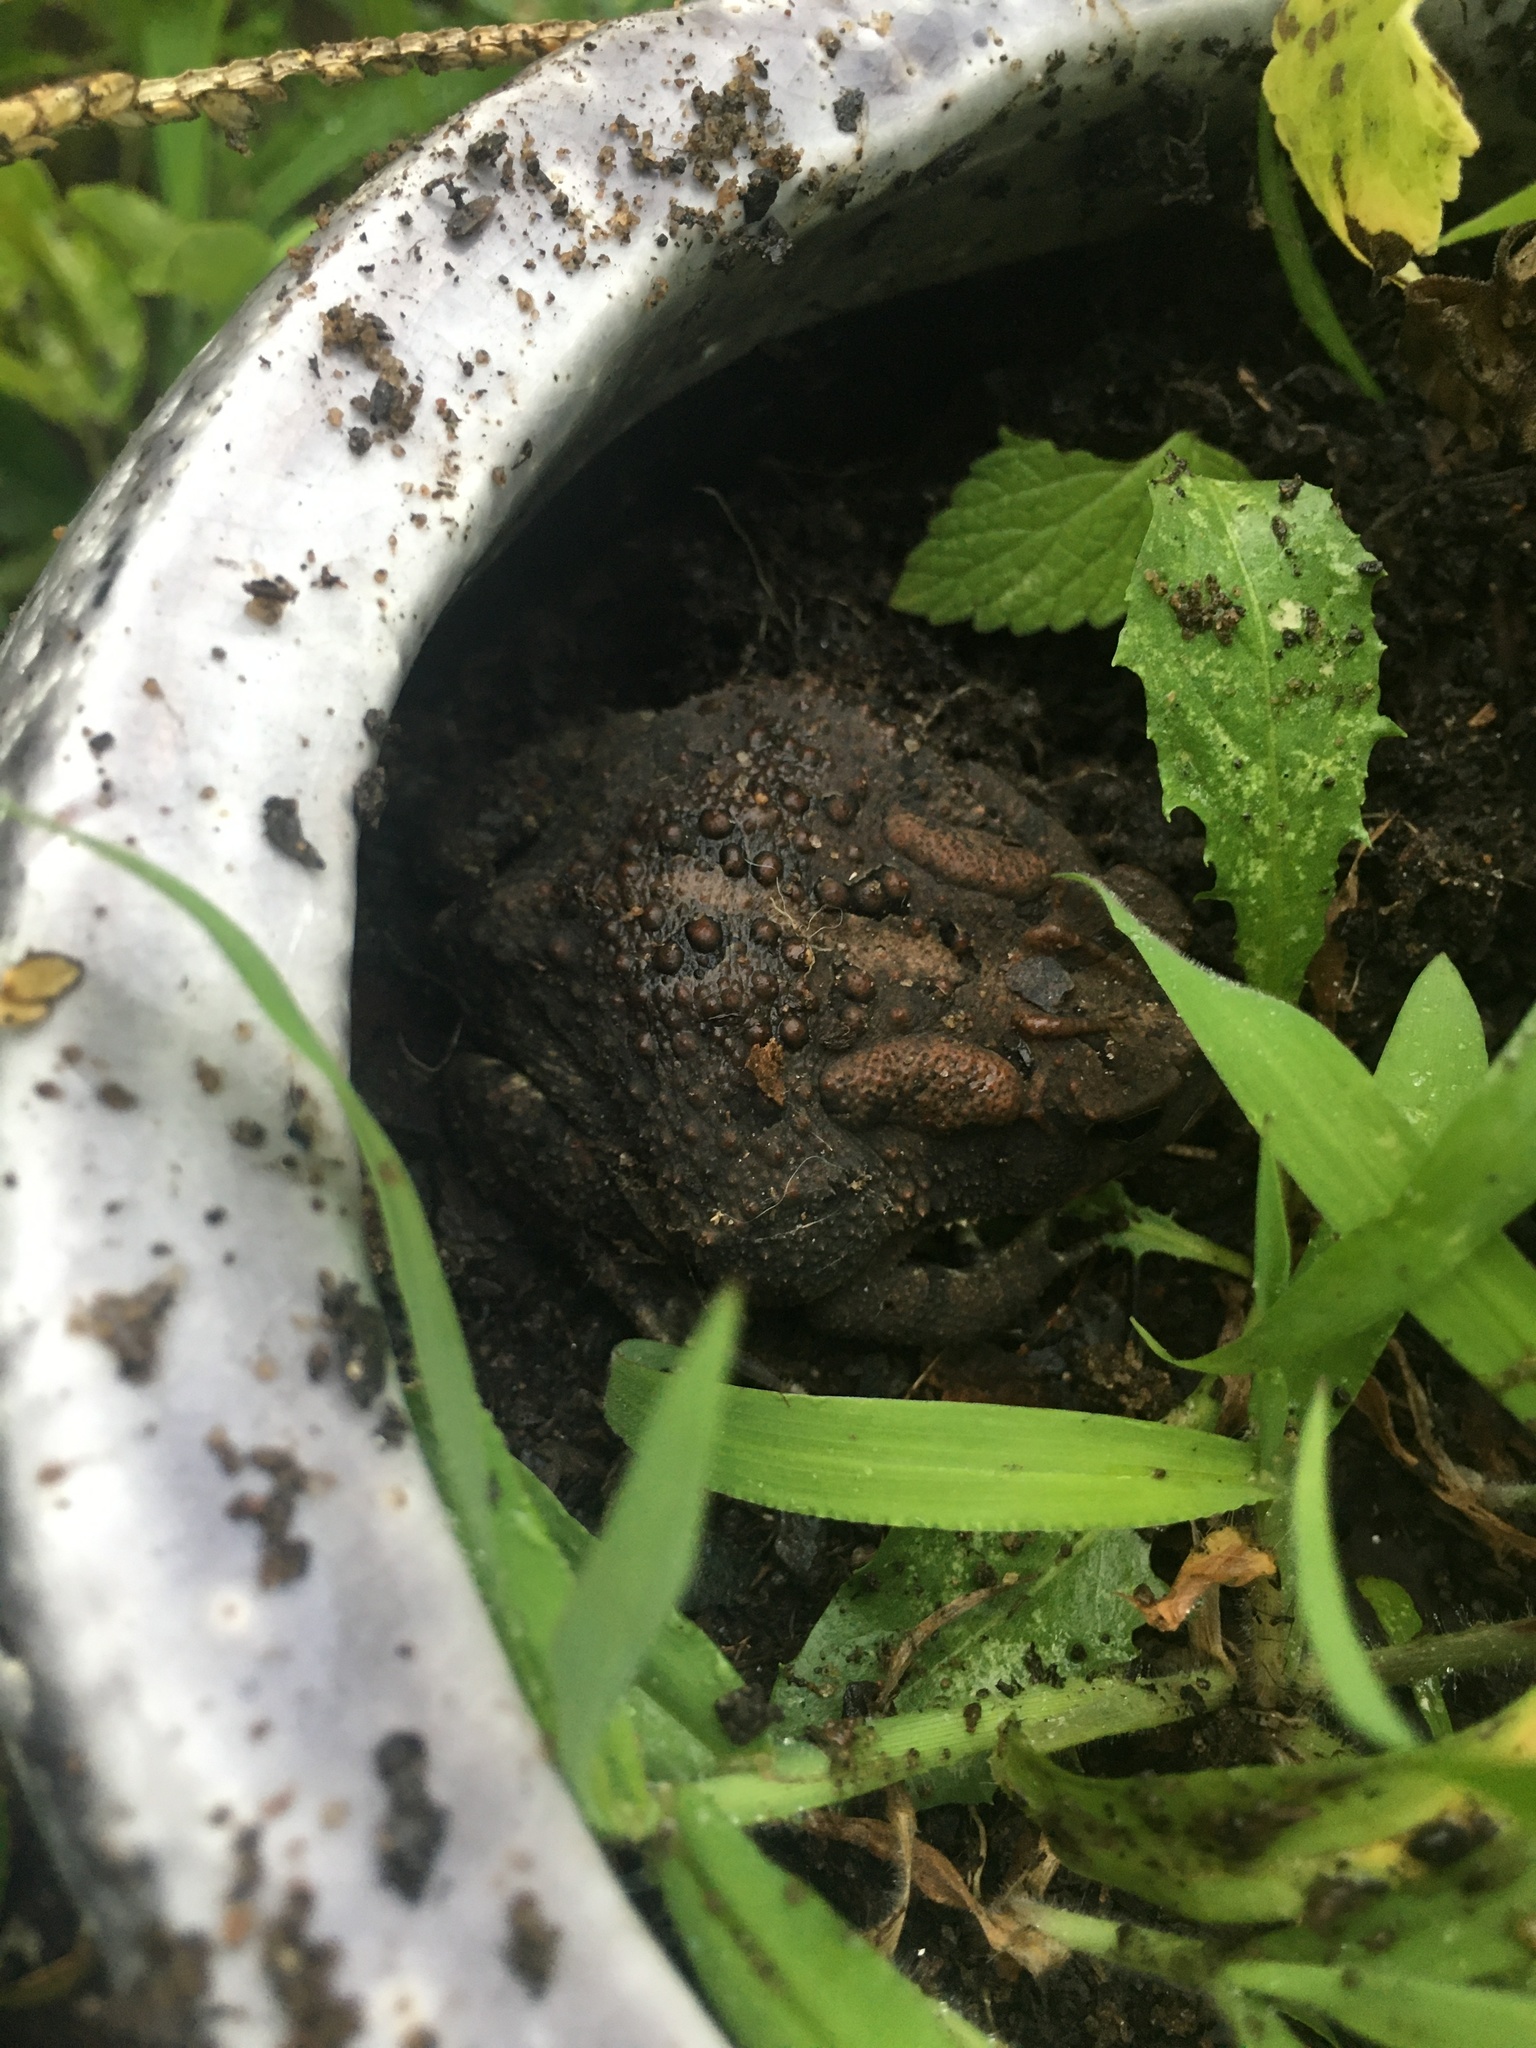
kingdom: Animalia
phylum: Chordata
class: Amphibia
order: Anura
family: Bufonidae
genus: Anaxyrus
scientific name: Anaxyrus terrestris
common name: Southern toad
